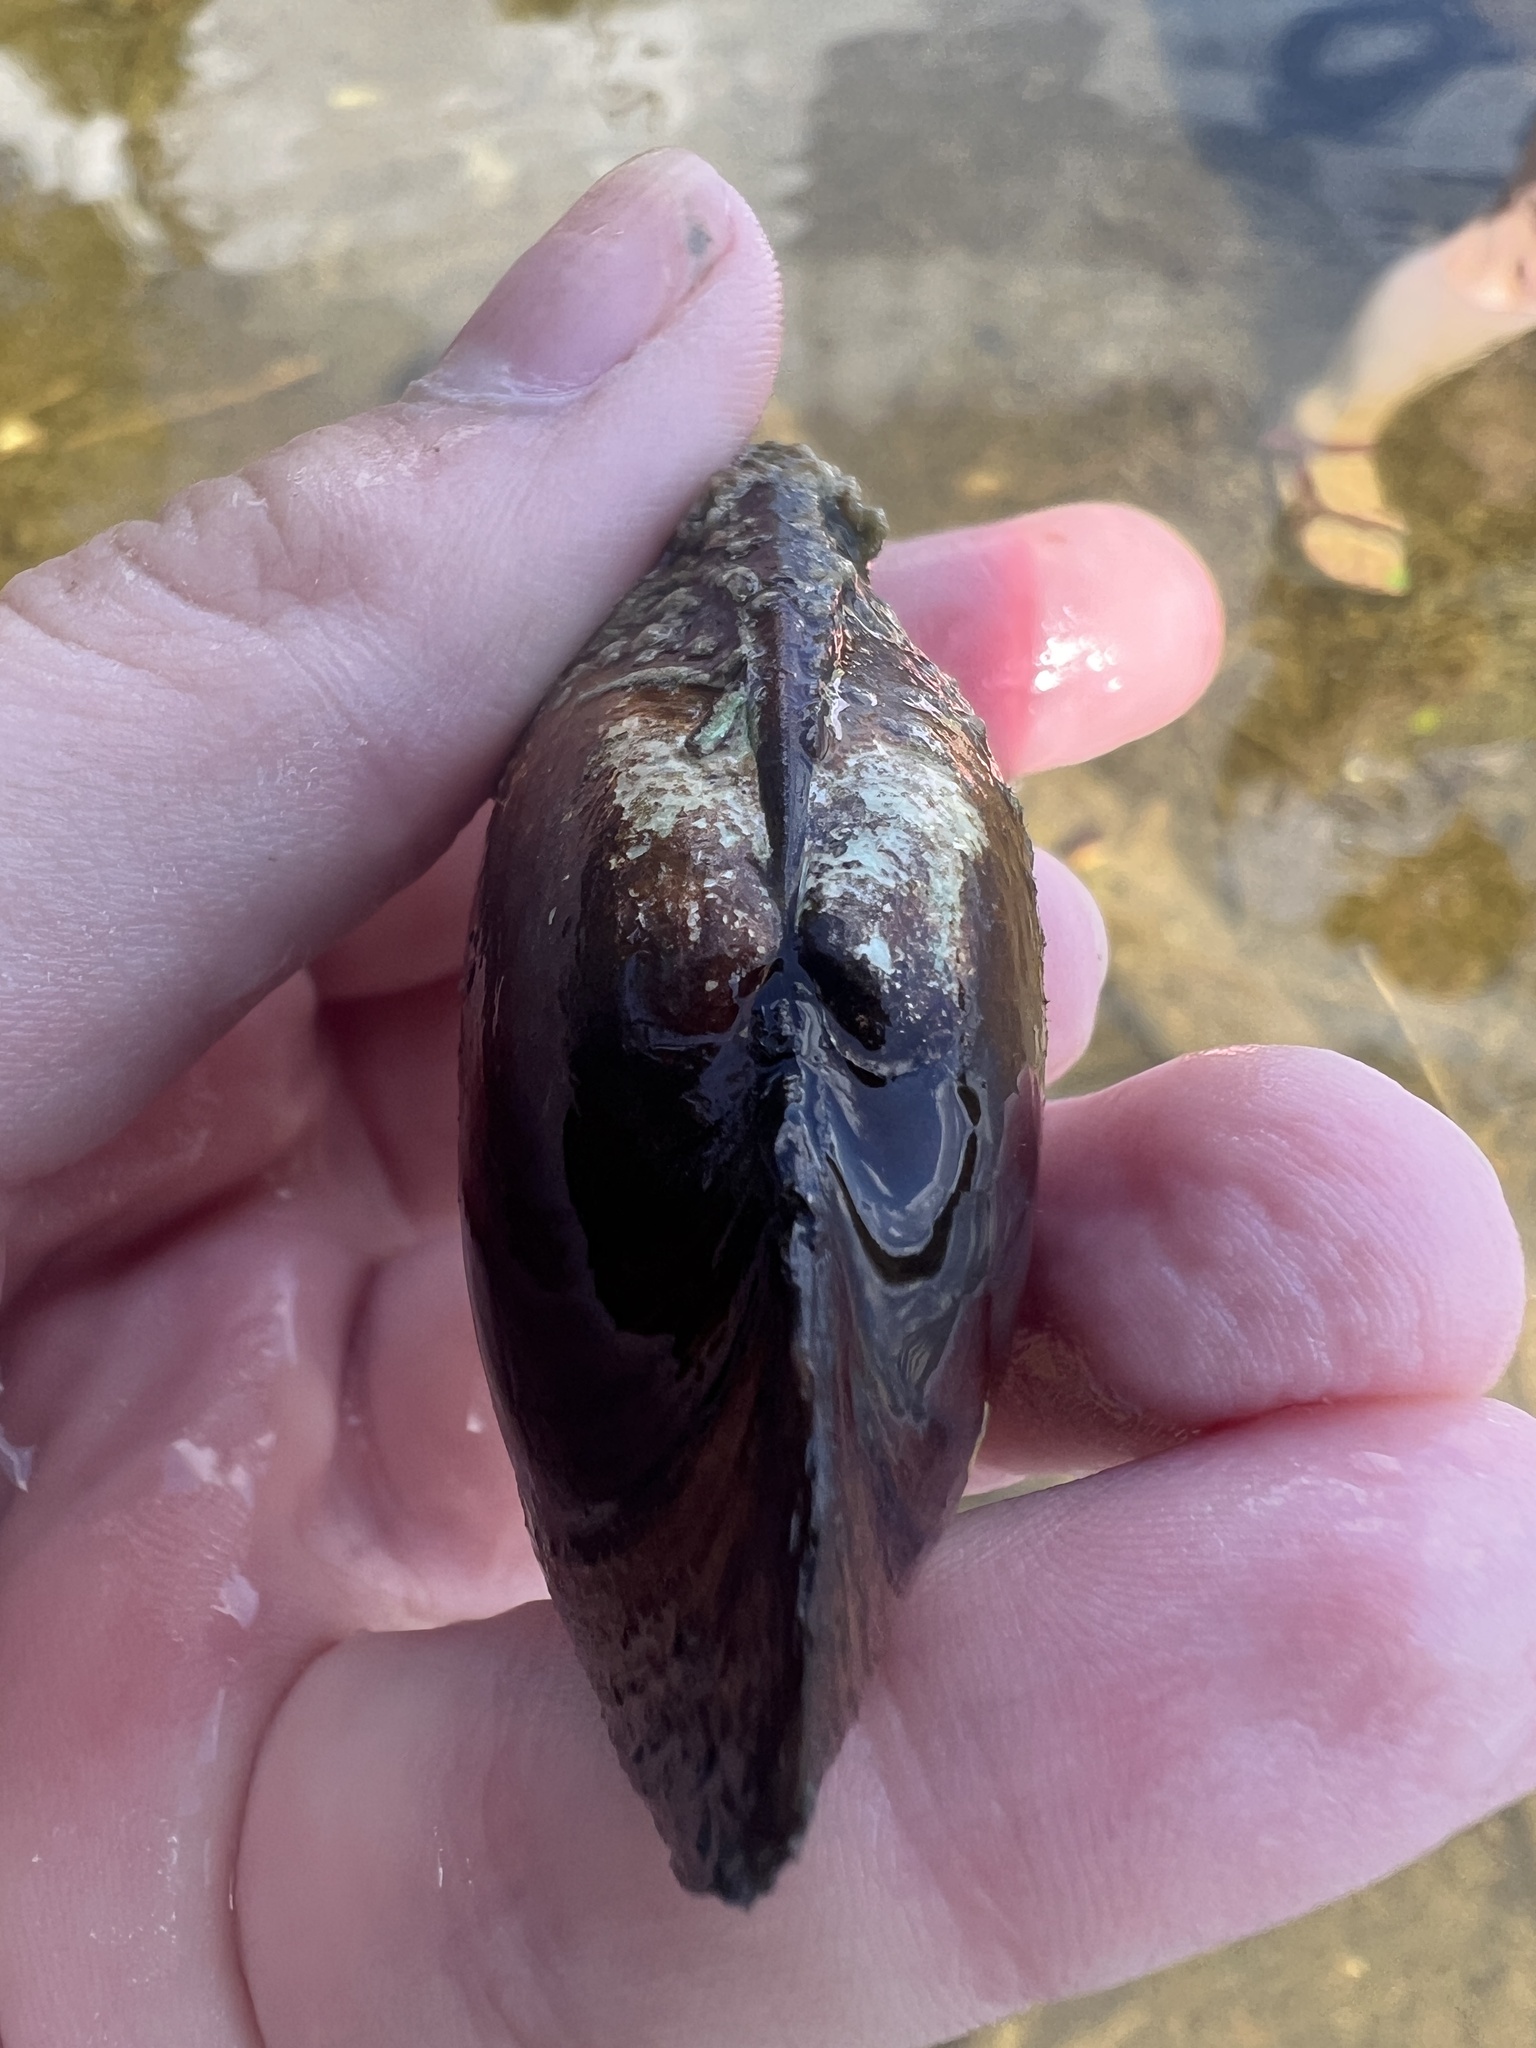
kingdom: Animalia
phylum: Mollusca
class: Bivalvia
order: Unionida
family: Unionidae
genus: Lampsilis
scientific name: Lampsilis siliquoidea
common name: Fatmucket
